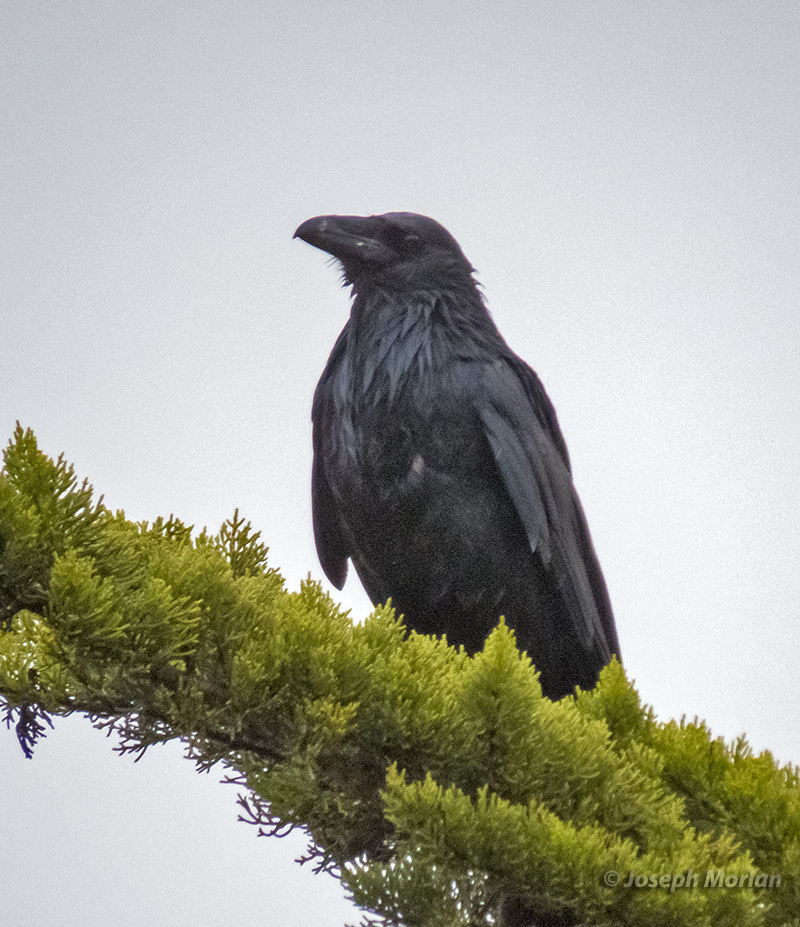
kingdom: Animalia
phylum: Chordata
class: Aves
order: Passeriformes
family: Corvidae
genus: Corvus
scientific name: Corvus corax
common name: Common raven
